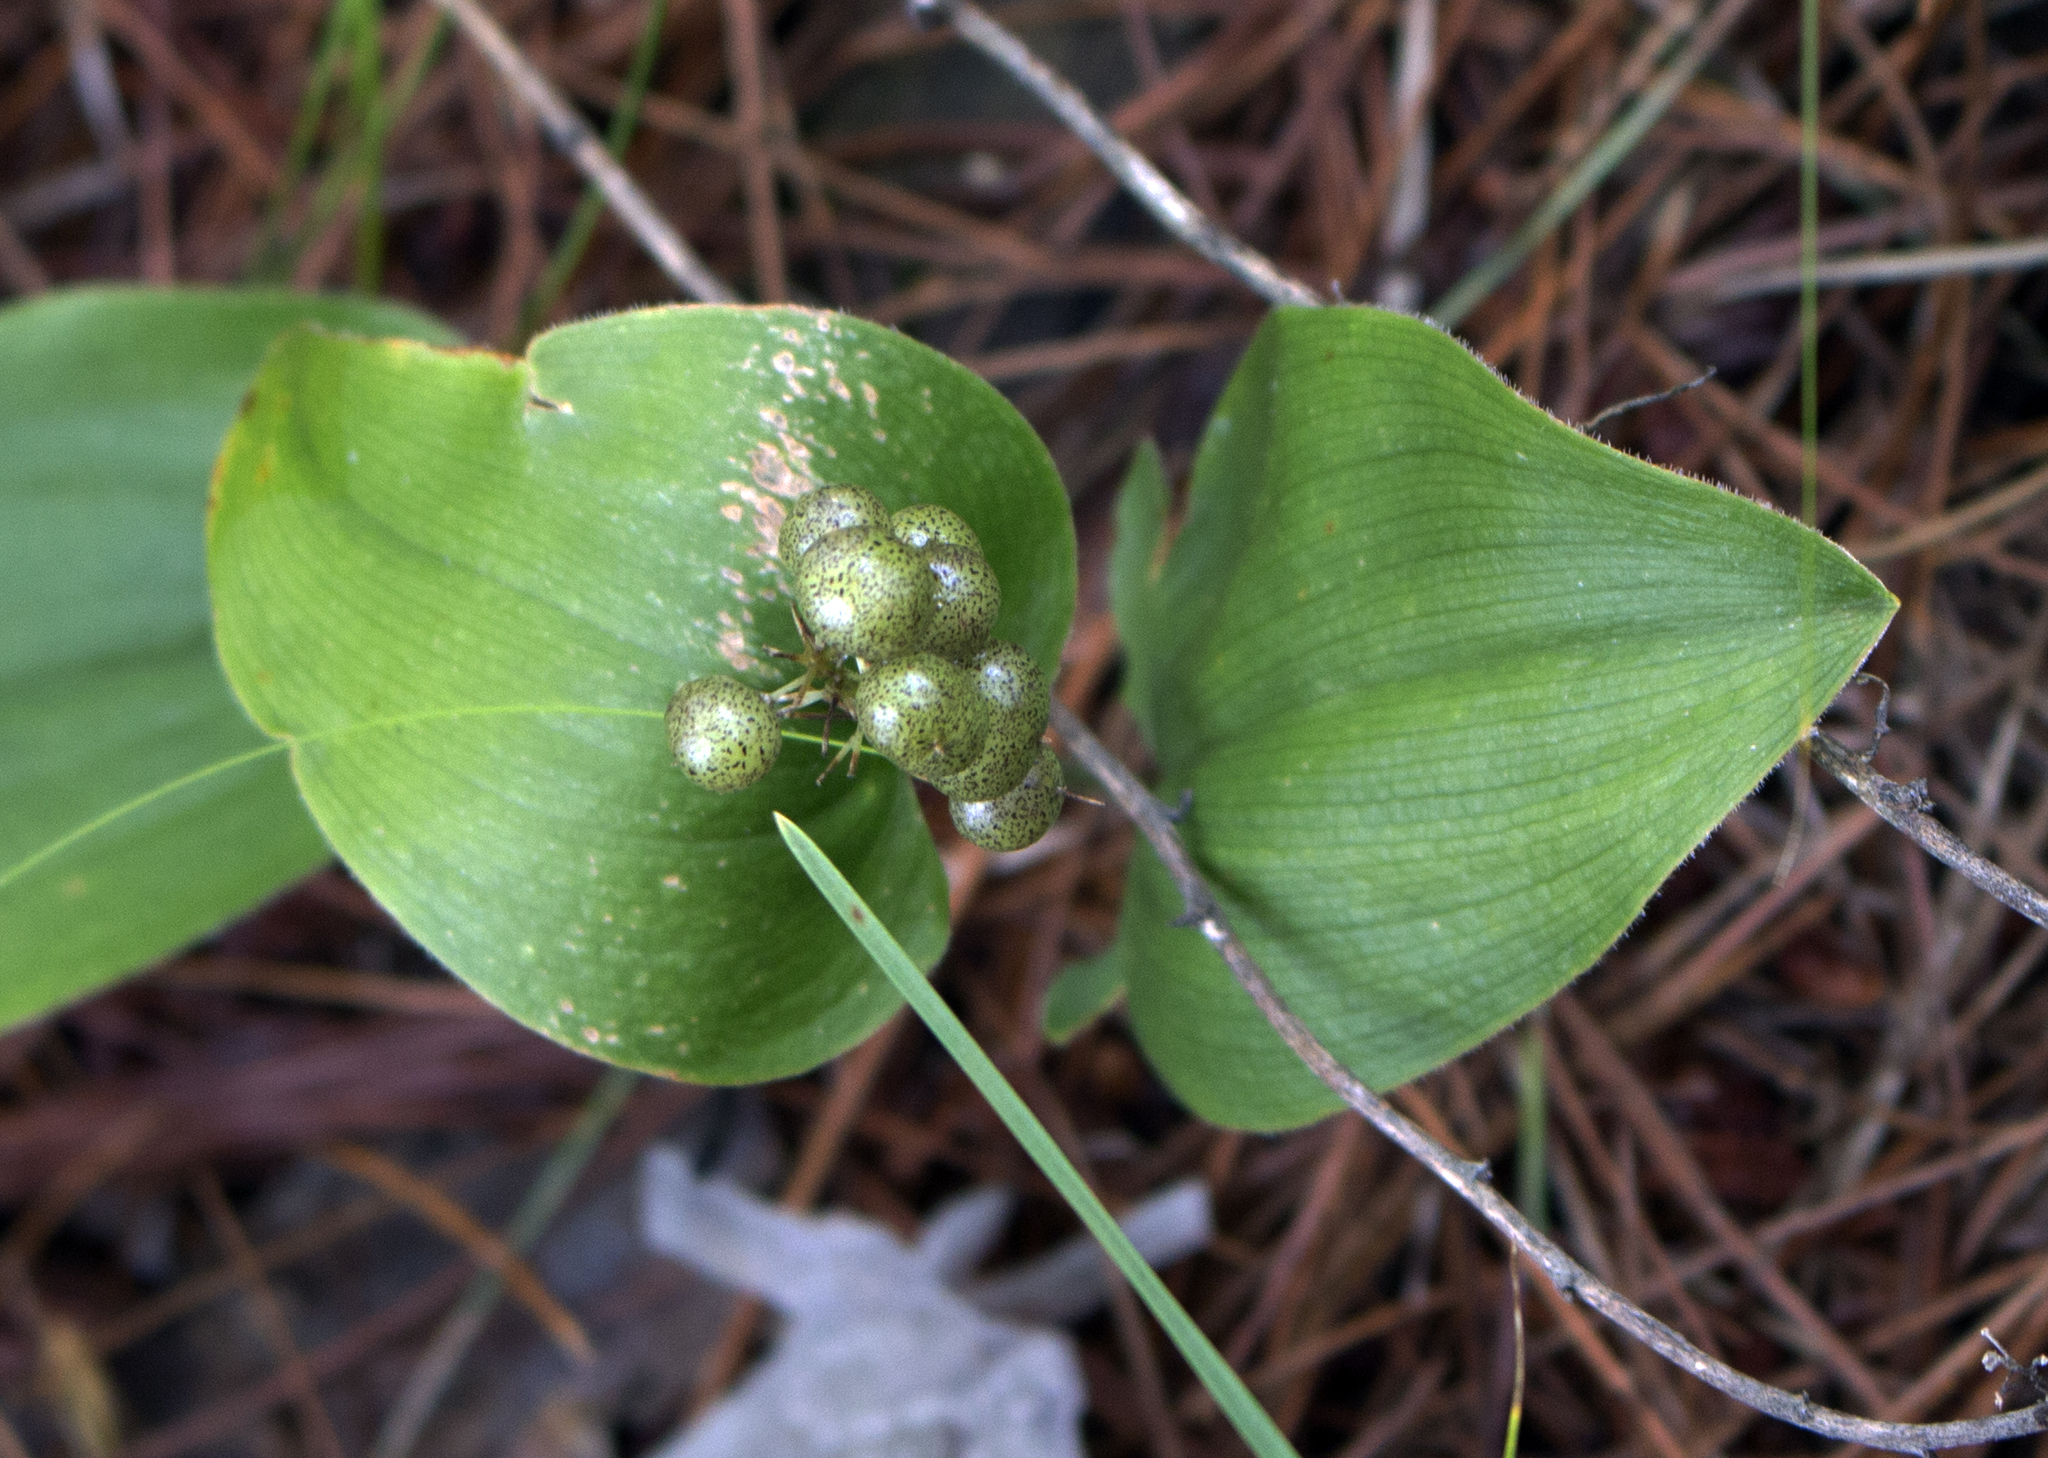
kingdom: Plantae
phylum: Tracheophyta
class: Liliopsida
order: Asparagales
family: Asparagaceae
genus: Maianthemum
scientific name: Maianthemum canadense
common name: False lily-of-the-valley
